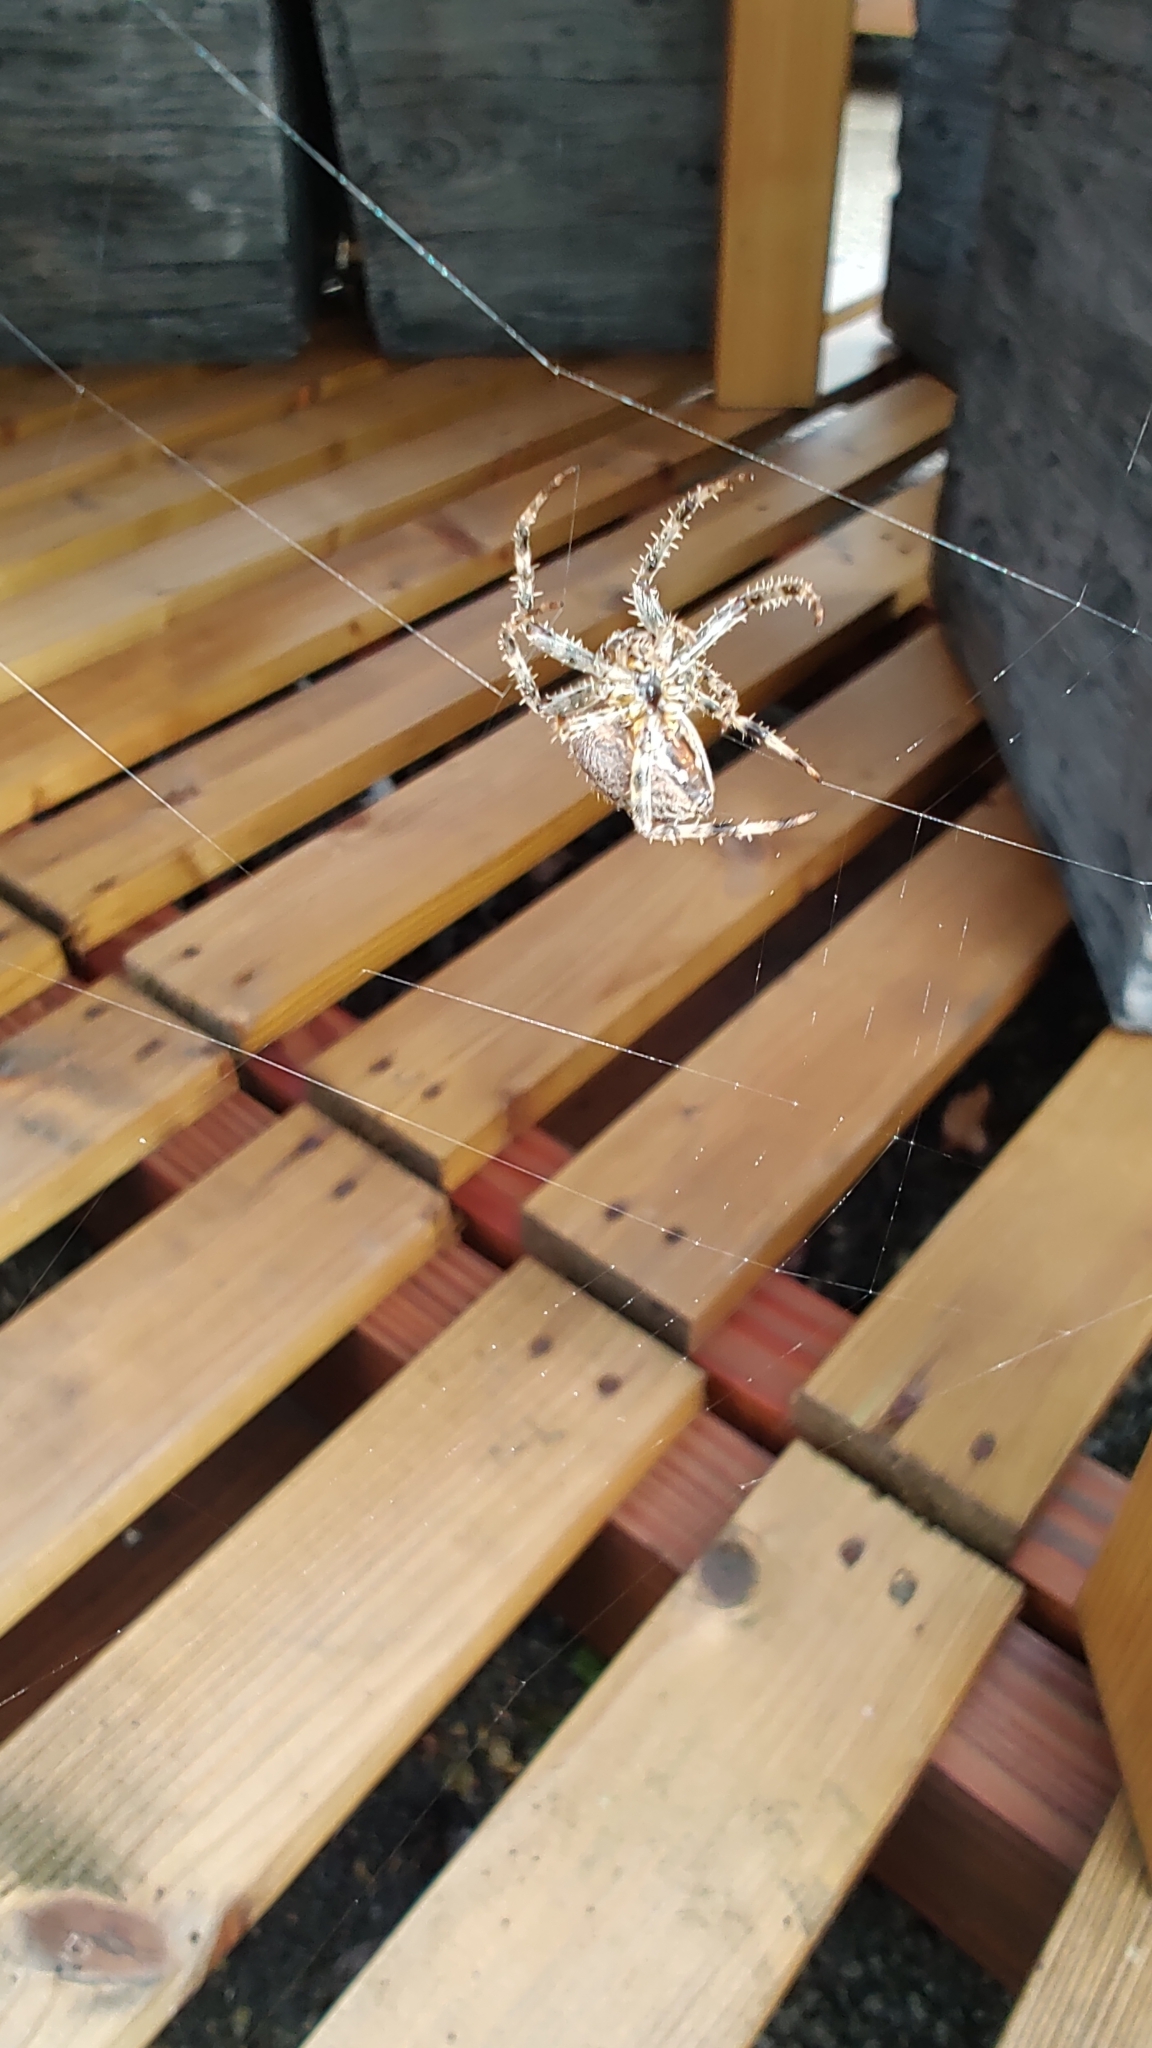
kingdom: Animalia
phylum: Arthropoda
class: Arachnida
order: Araneae
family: Araneidae
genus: Araneus
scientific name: Araneus diadematus
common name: Cross orbweaver
